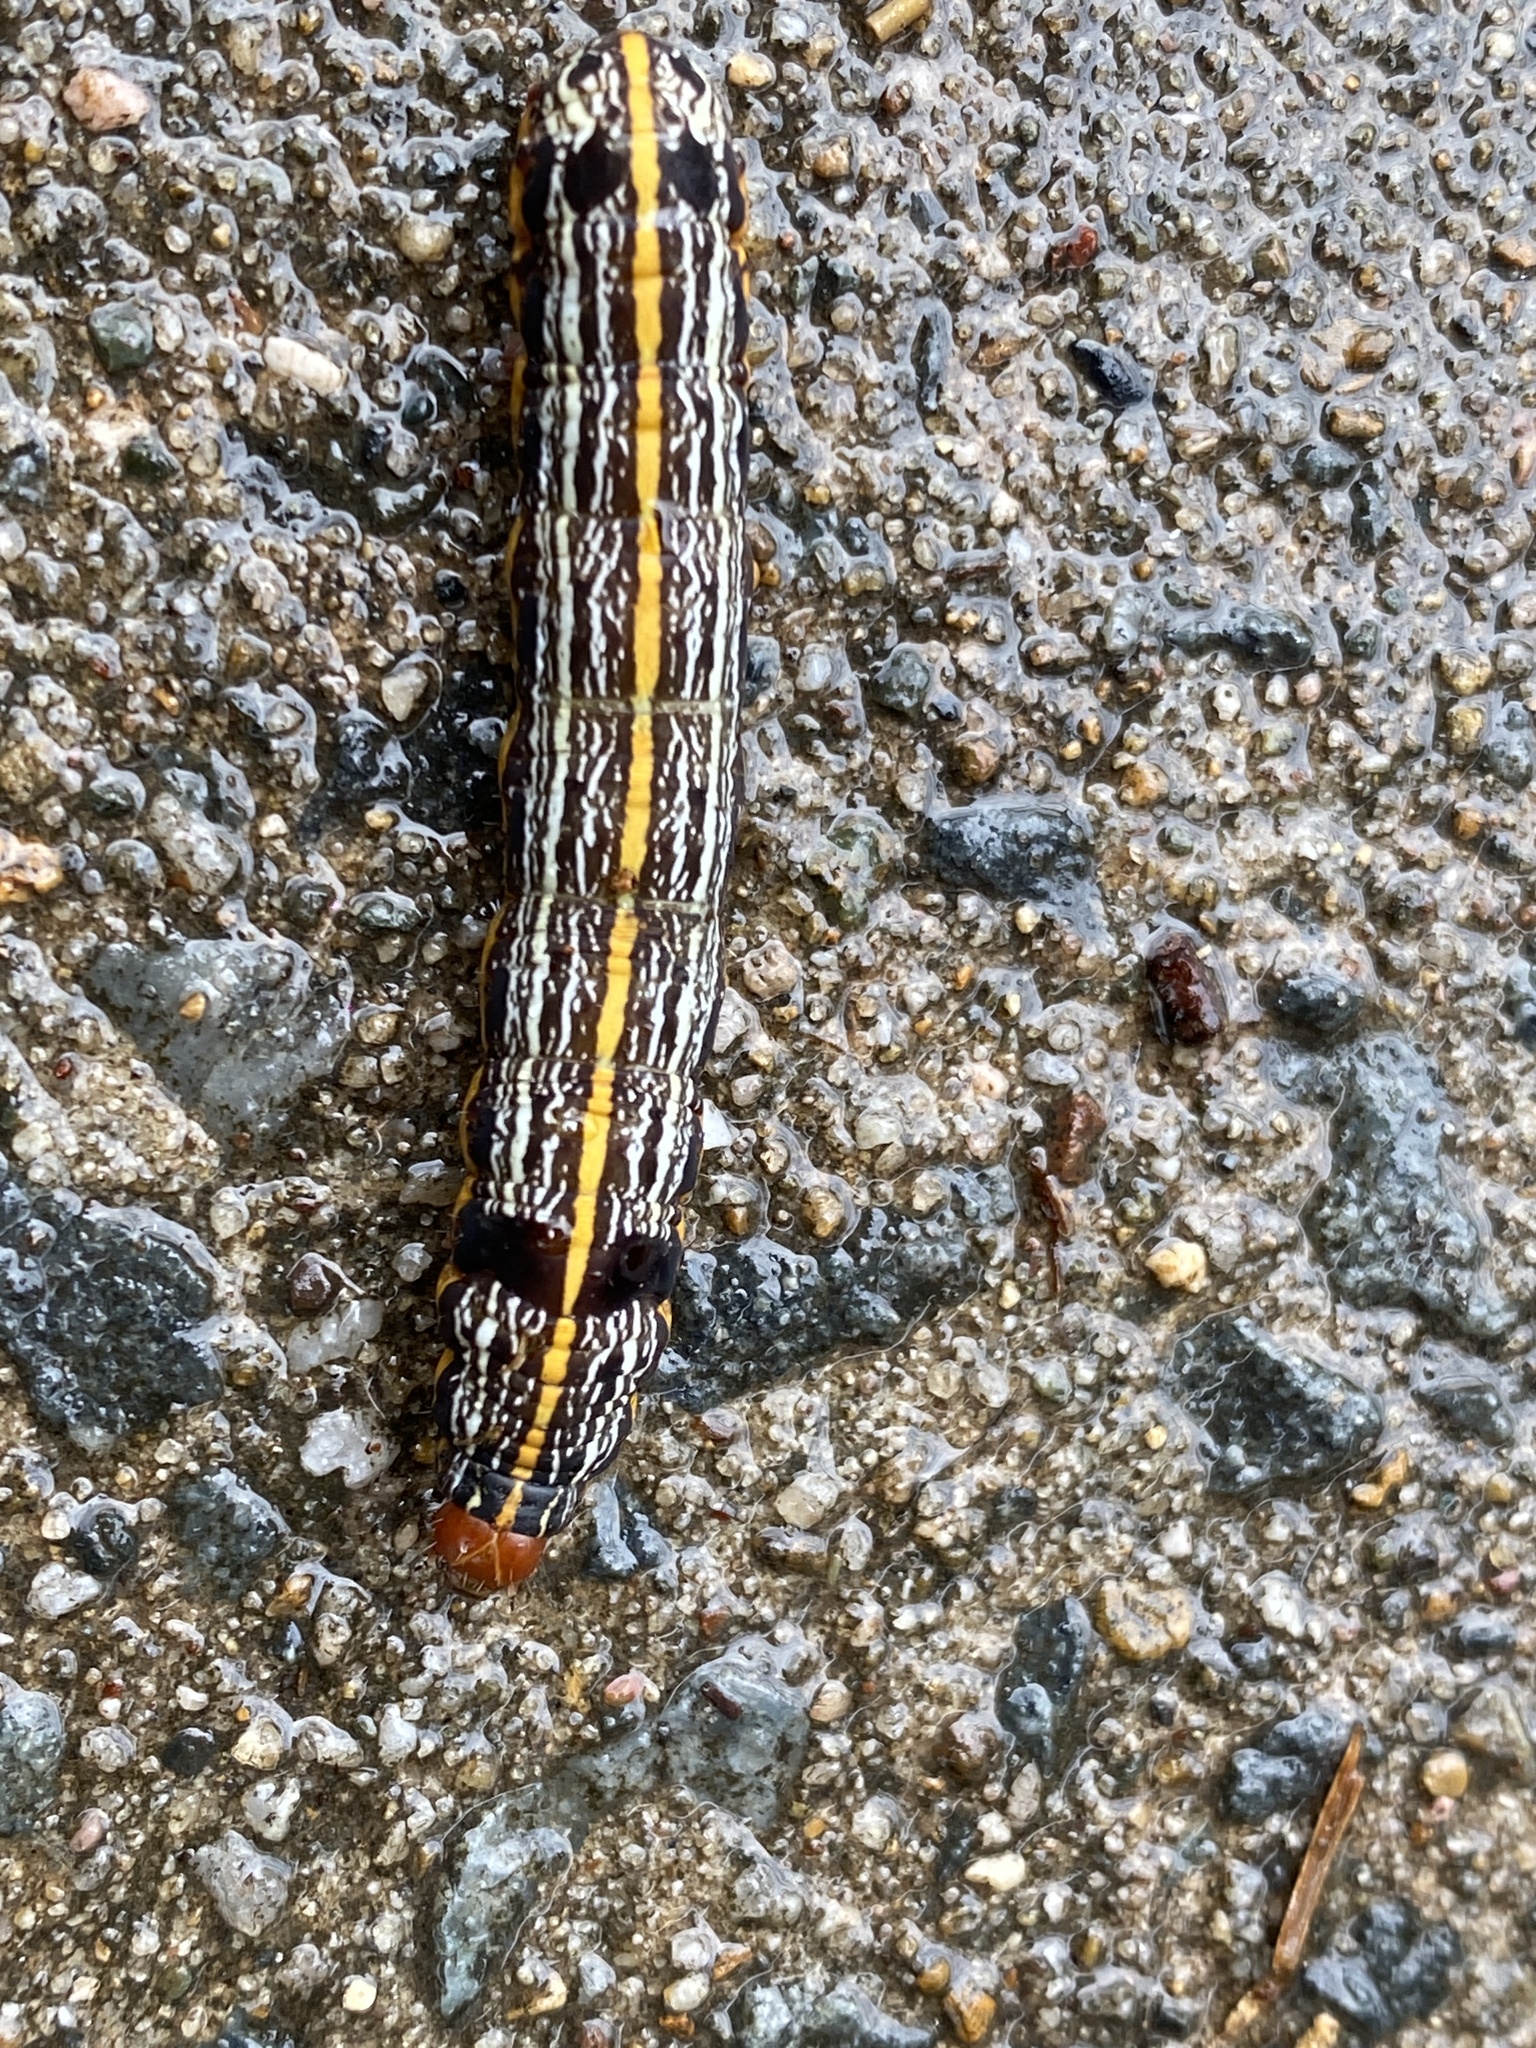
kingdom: Animalia
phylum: Arthropoda
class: Insecta
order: Lepidoptera
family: Noctuidae
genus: Spodoptera
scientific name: Spodoptera picta
